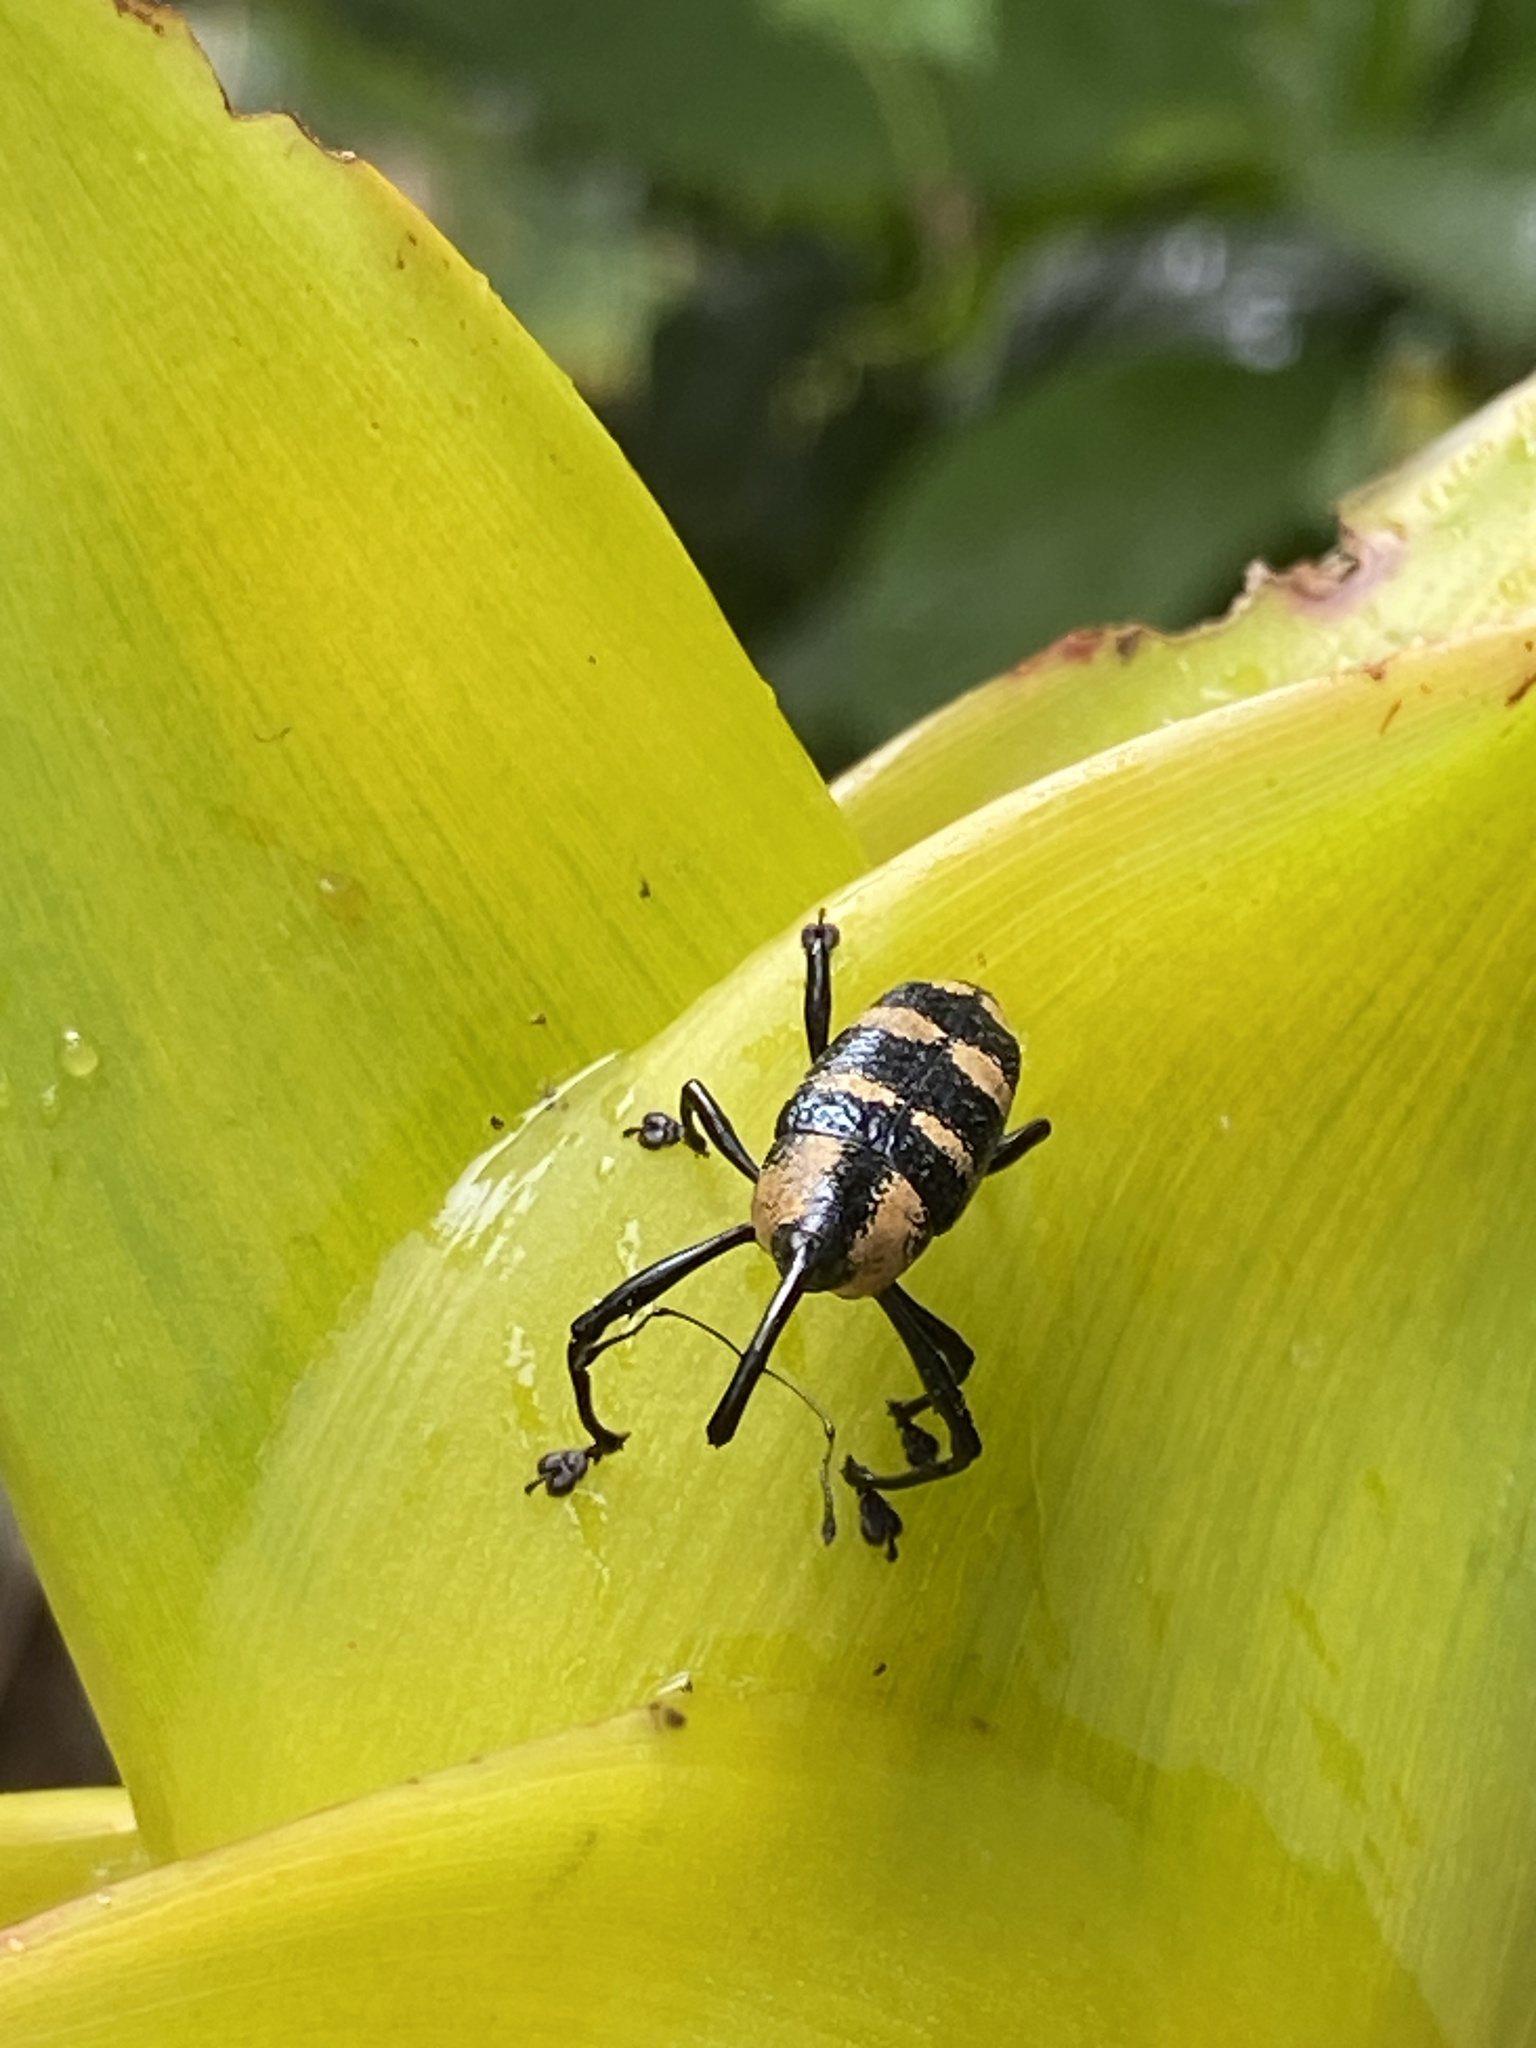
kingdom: Animalia
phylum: Arthropoda
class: Insecta
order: Coleoptera
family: Curculionidae
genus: Cholus
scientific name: Cholus zonatus
